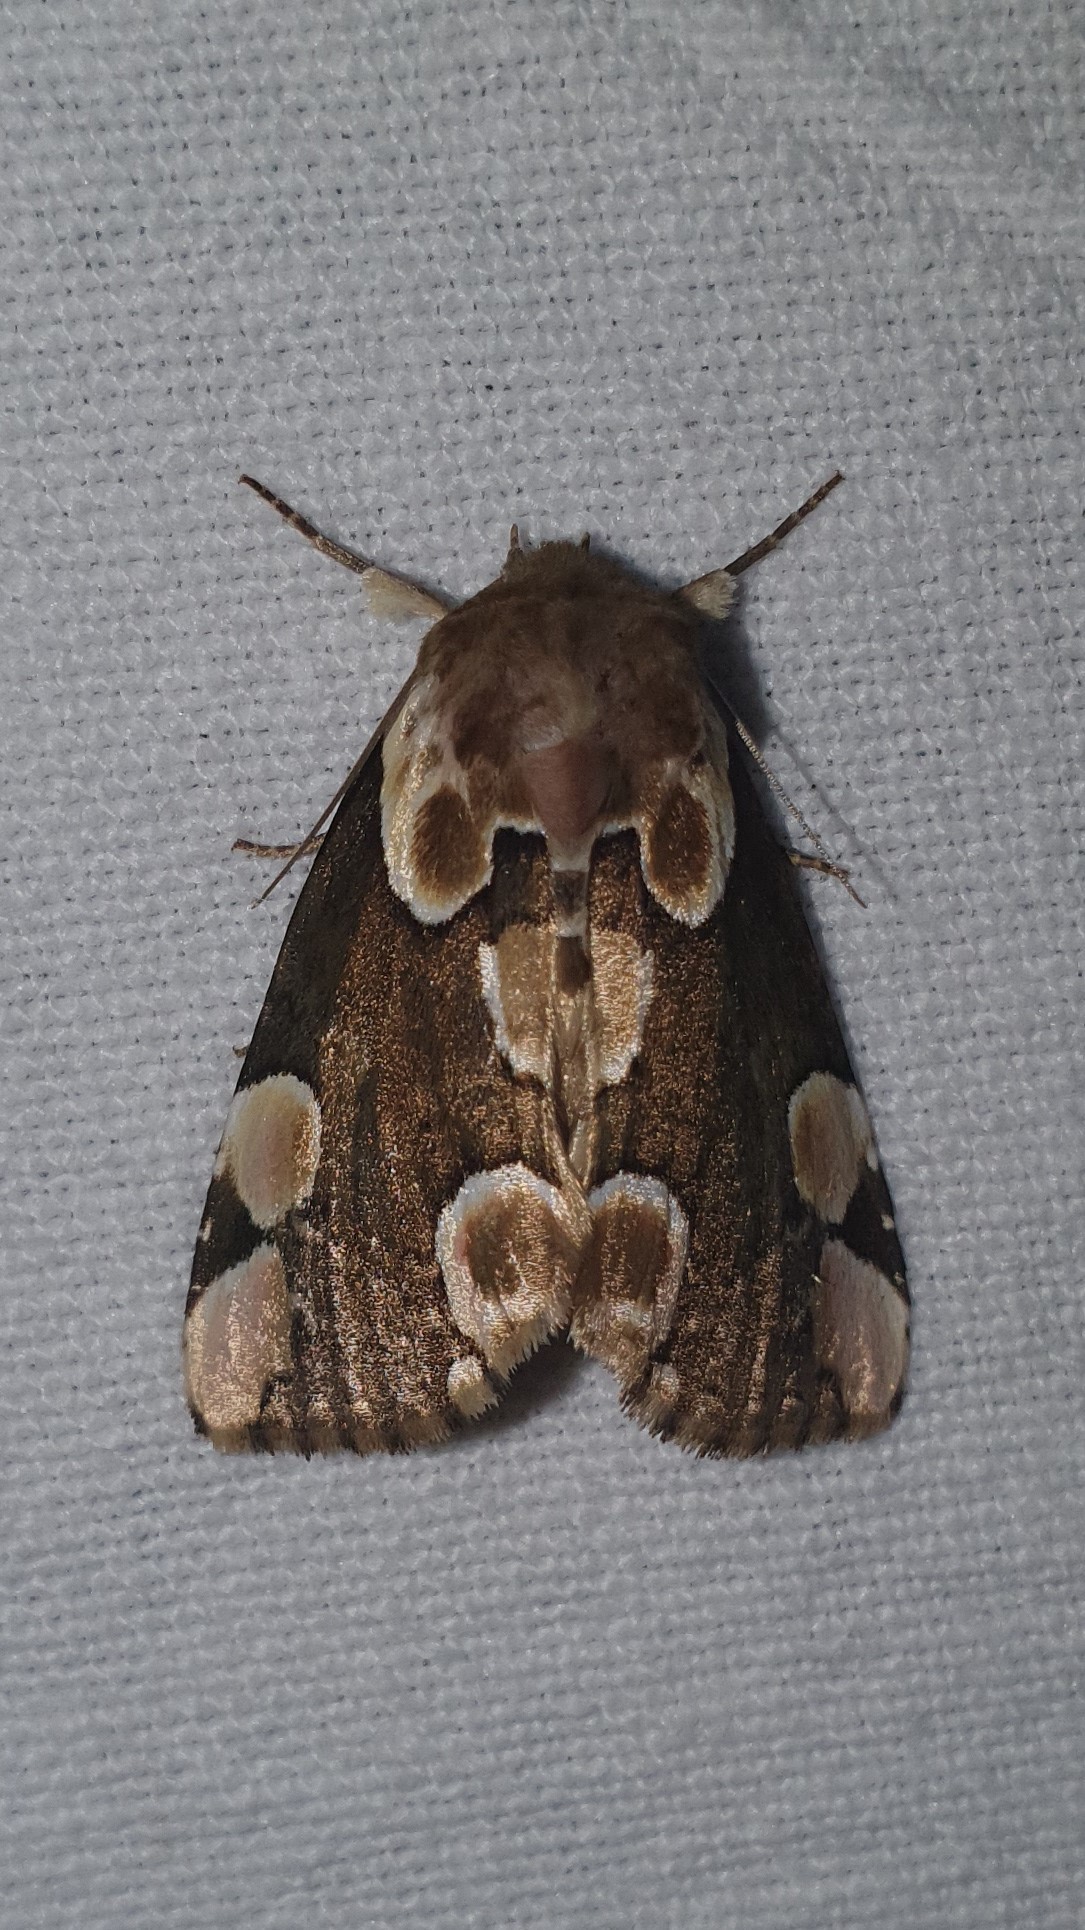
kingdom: Animalia
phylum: Arthropoda
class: Insecta
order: Lepidoptera
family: Drepanidae
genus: Thyatira
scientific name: Thyatira batis
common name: Peach blossom
